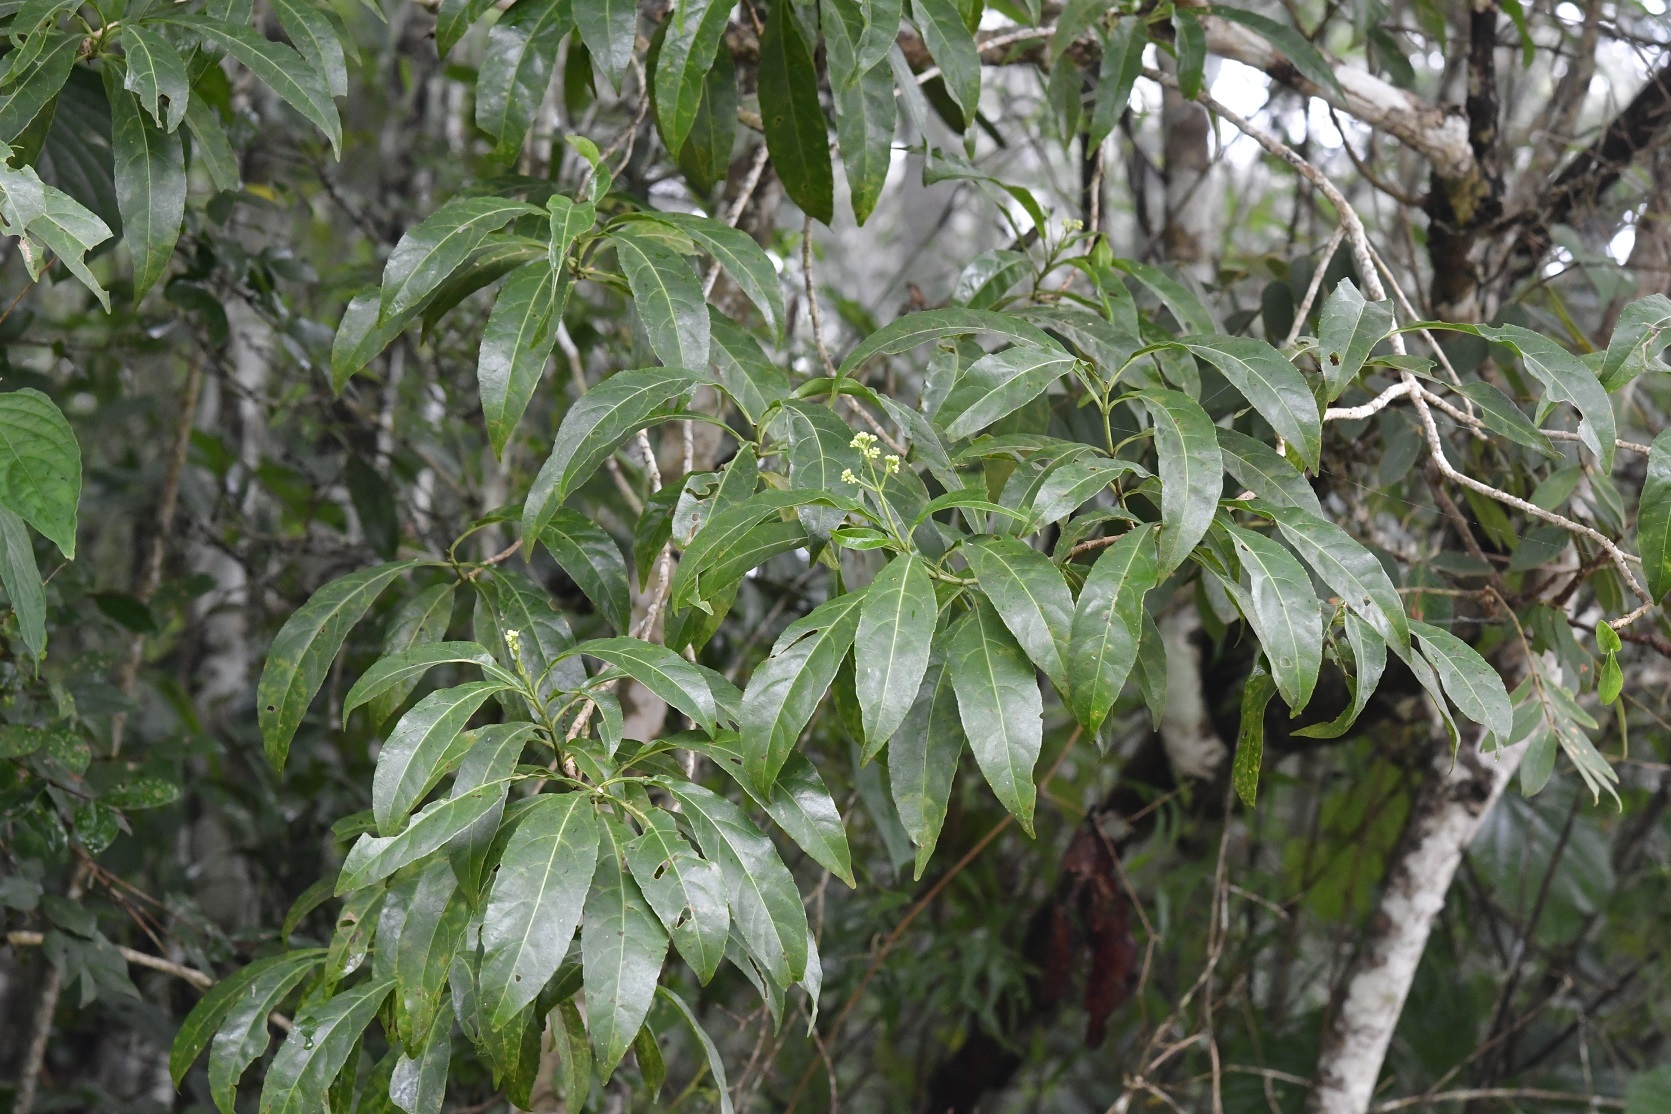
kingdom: Plantae
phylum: Tracheophyta
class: Magnoliopsida
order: Asterales
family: Asteraceae
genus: Critonia
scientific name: Critonia hospitalis
